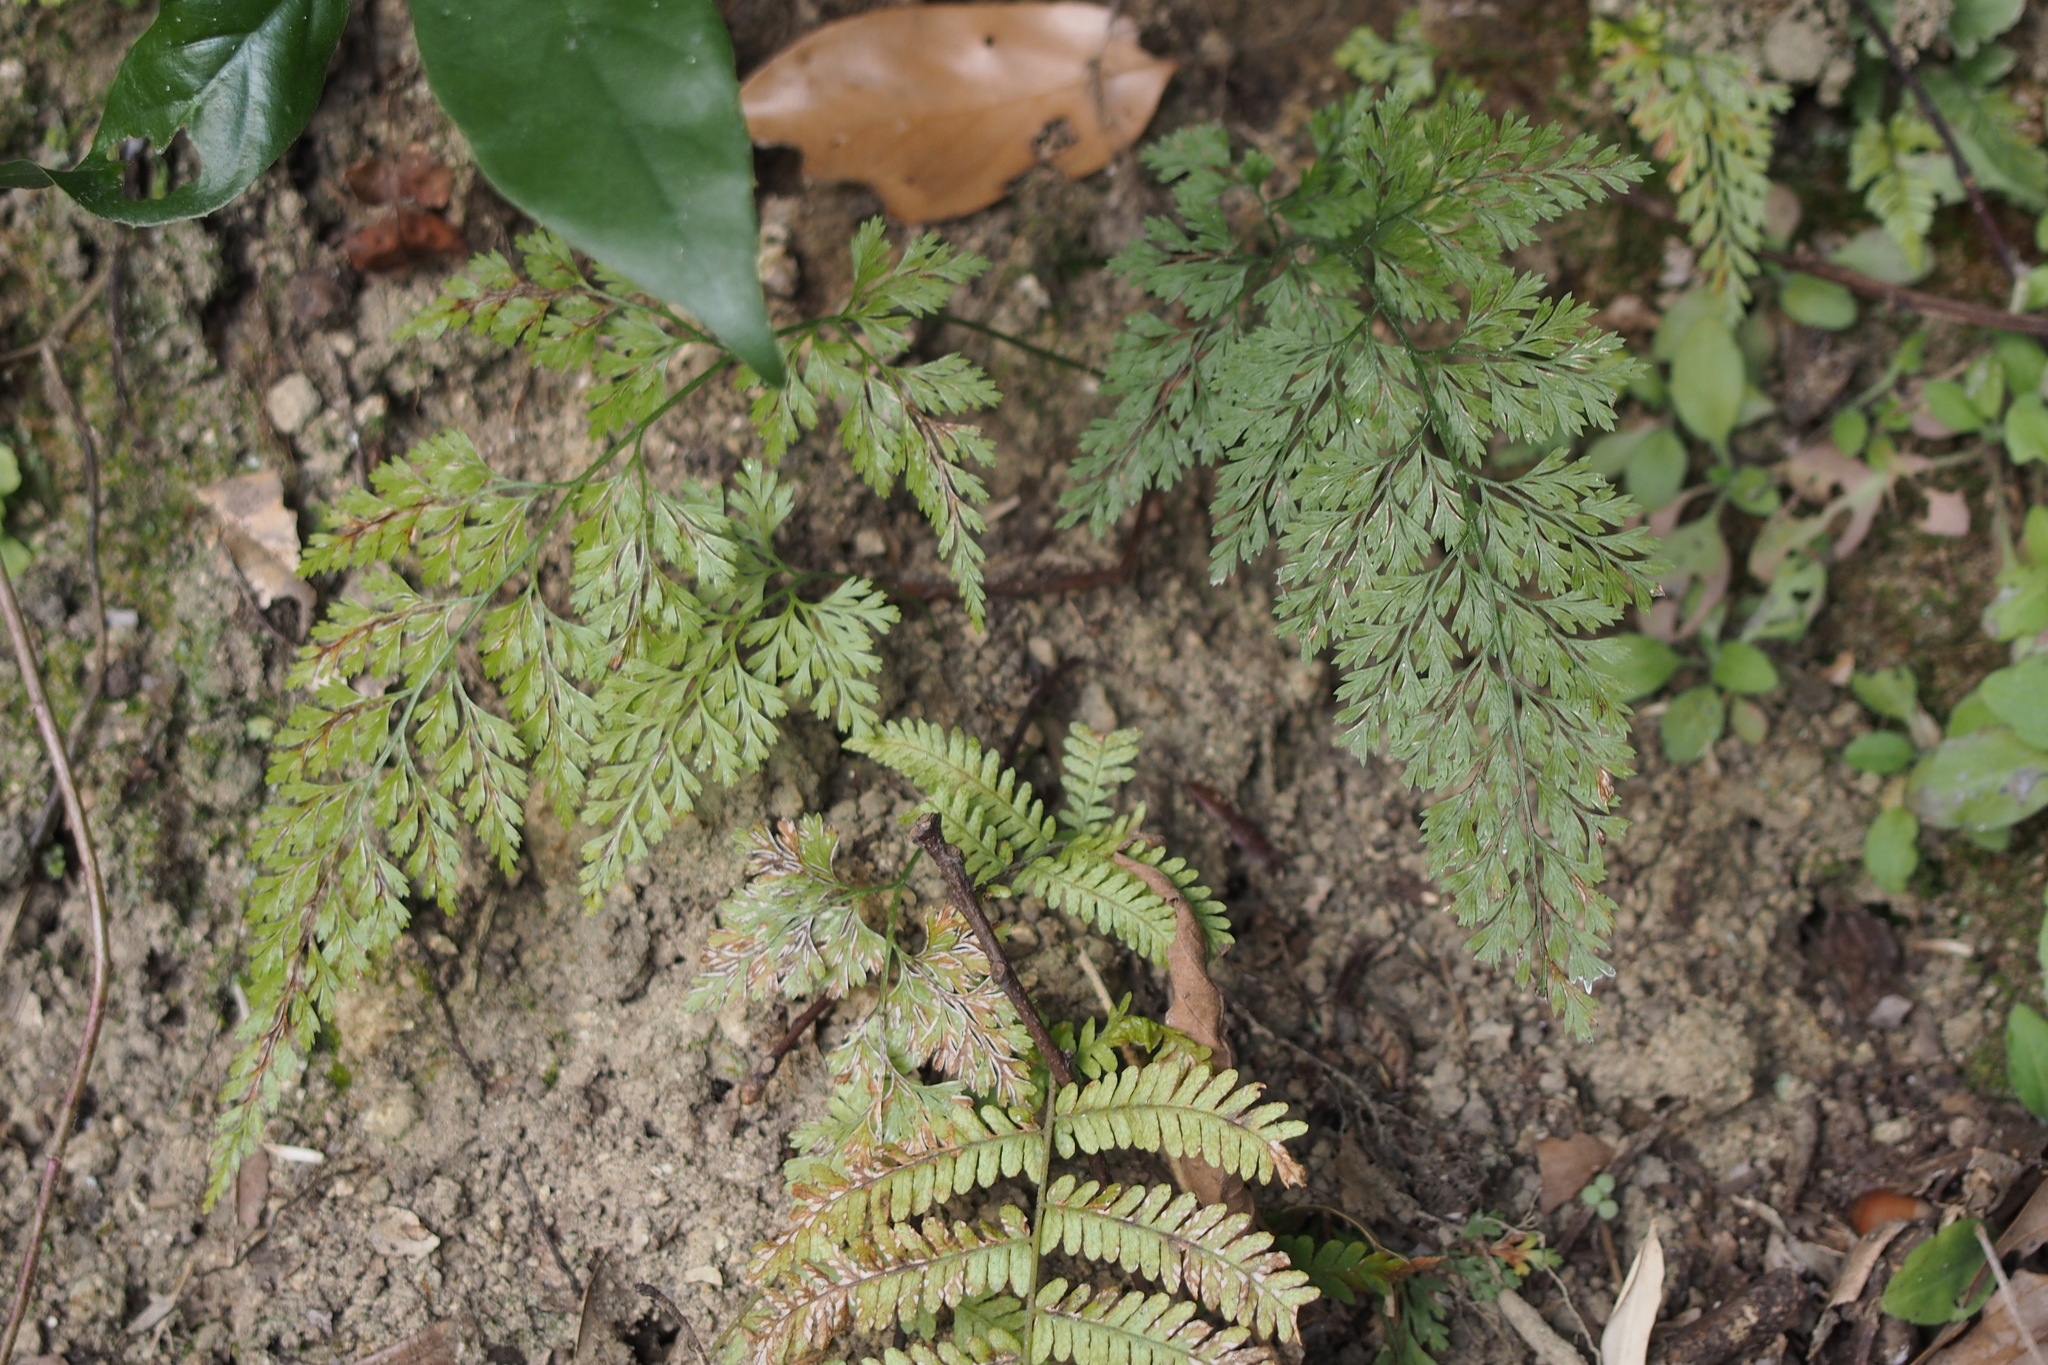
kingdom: Plantae
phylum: Tracheophyta
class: Polypodiopsida
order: Polypodiales
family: Pteridaceae
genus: Onychium
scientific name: Onychium japonicum
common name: Carrot fern
